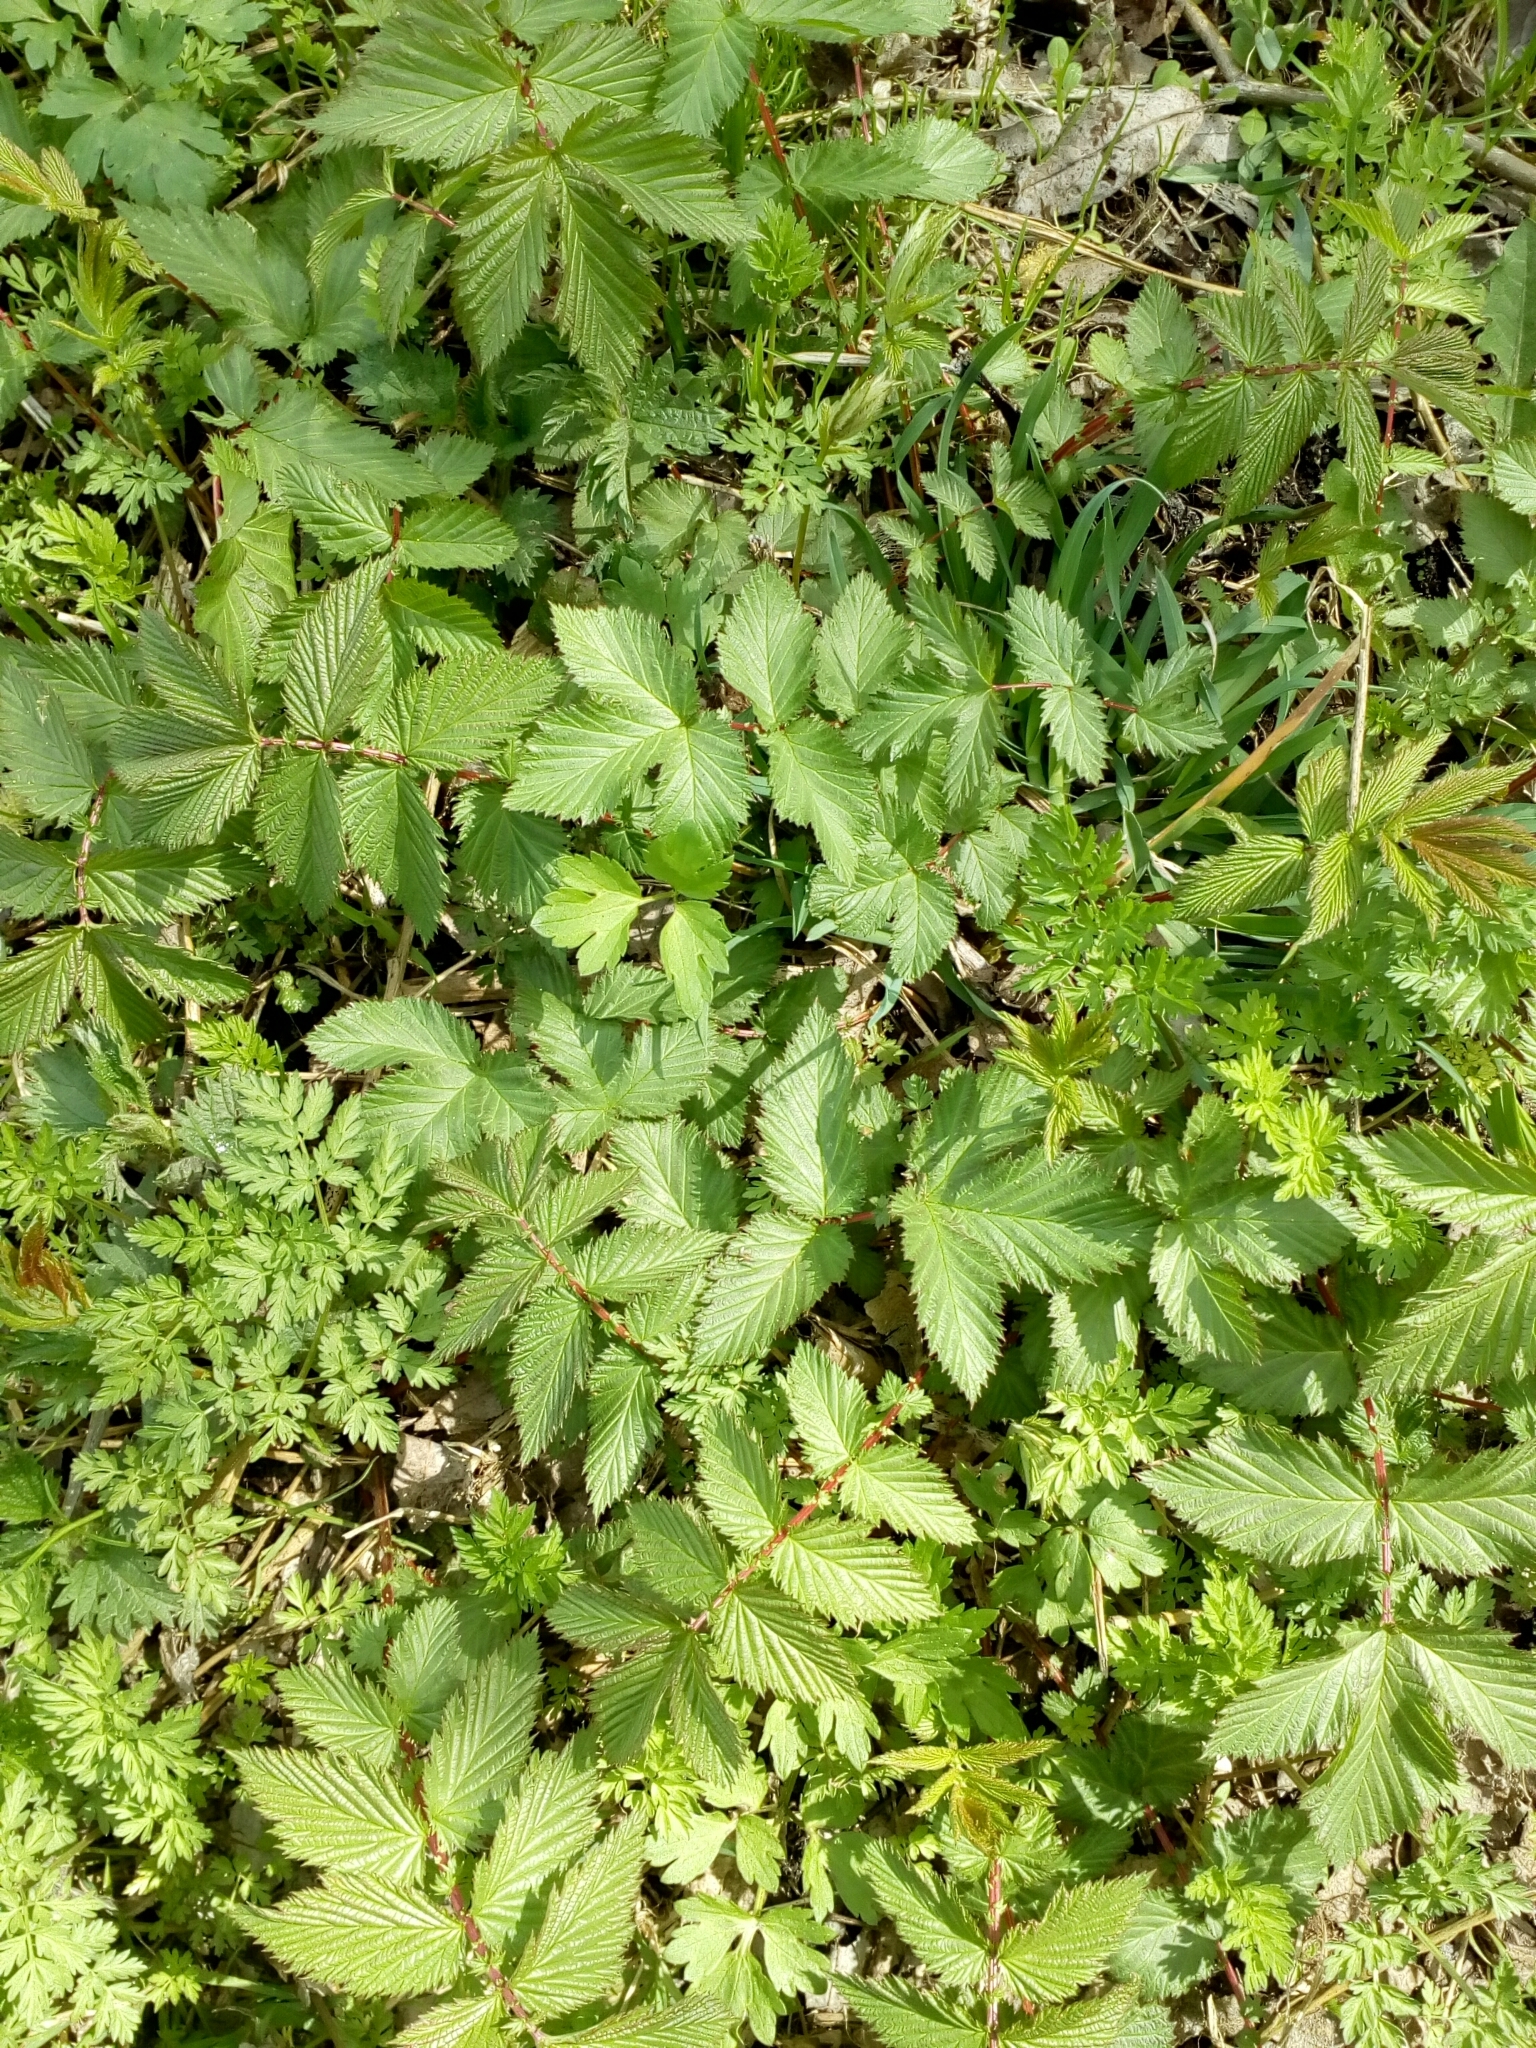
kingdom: Plantae
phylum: Tracheophyta
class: Magnoliopsida
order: Rosales
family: Rosaceae
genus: Filipendula
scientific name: Filipendula ulmaria
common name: Meadowsweet
